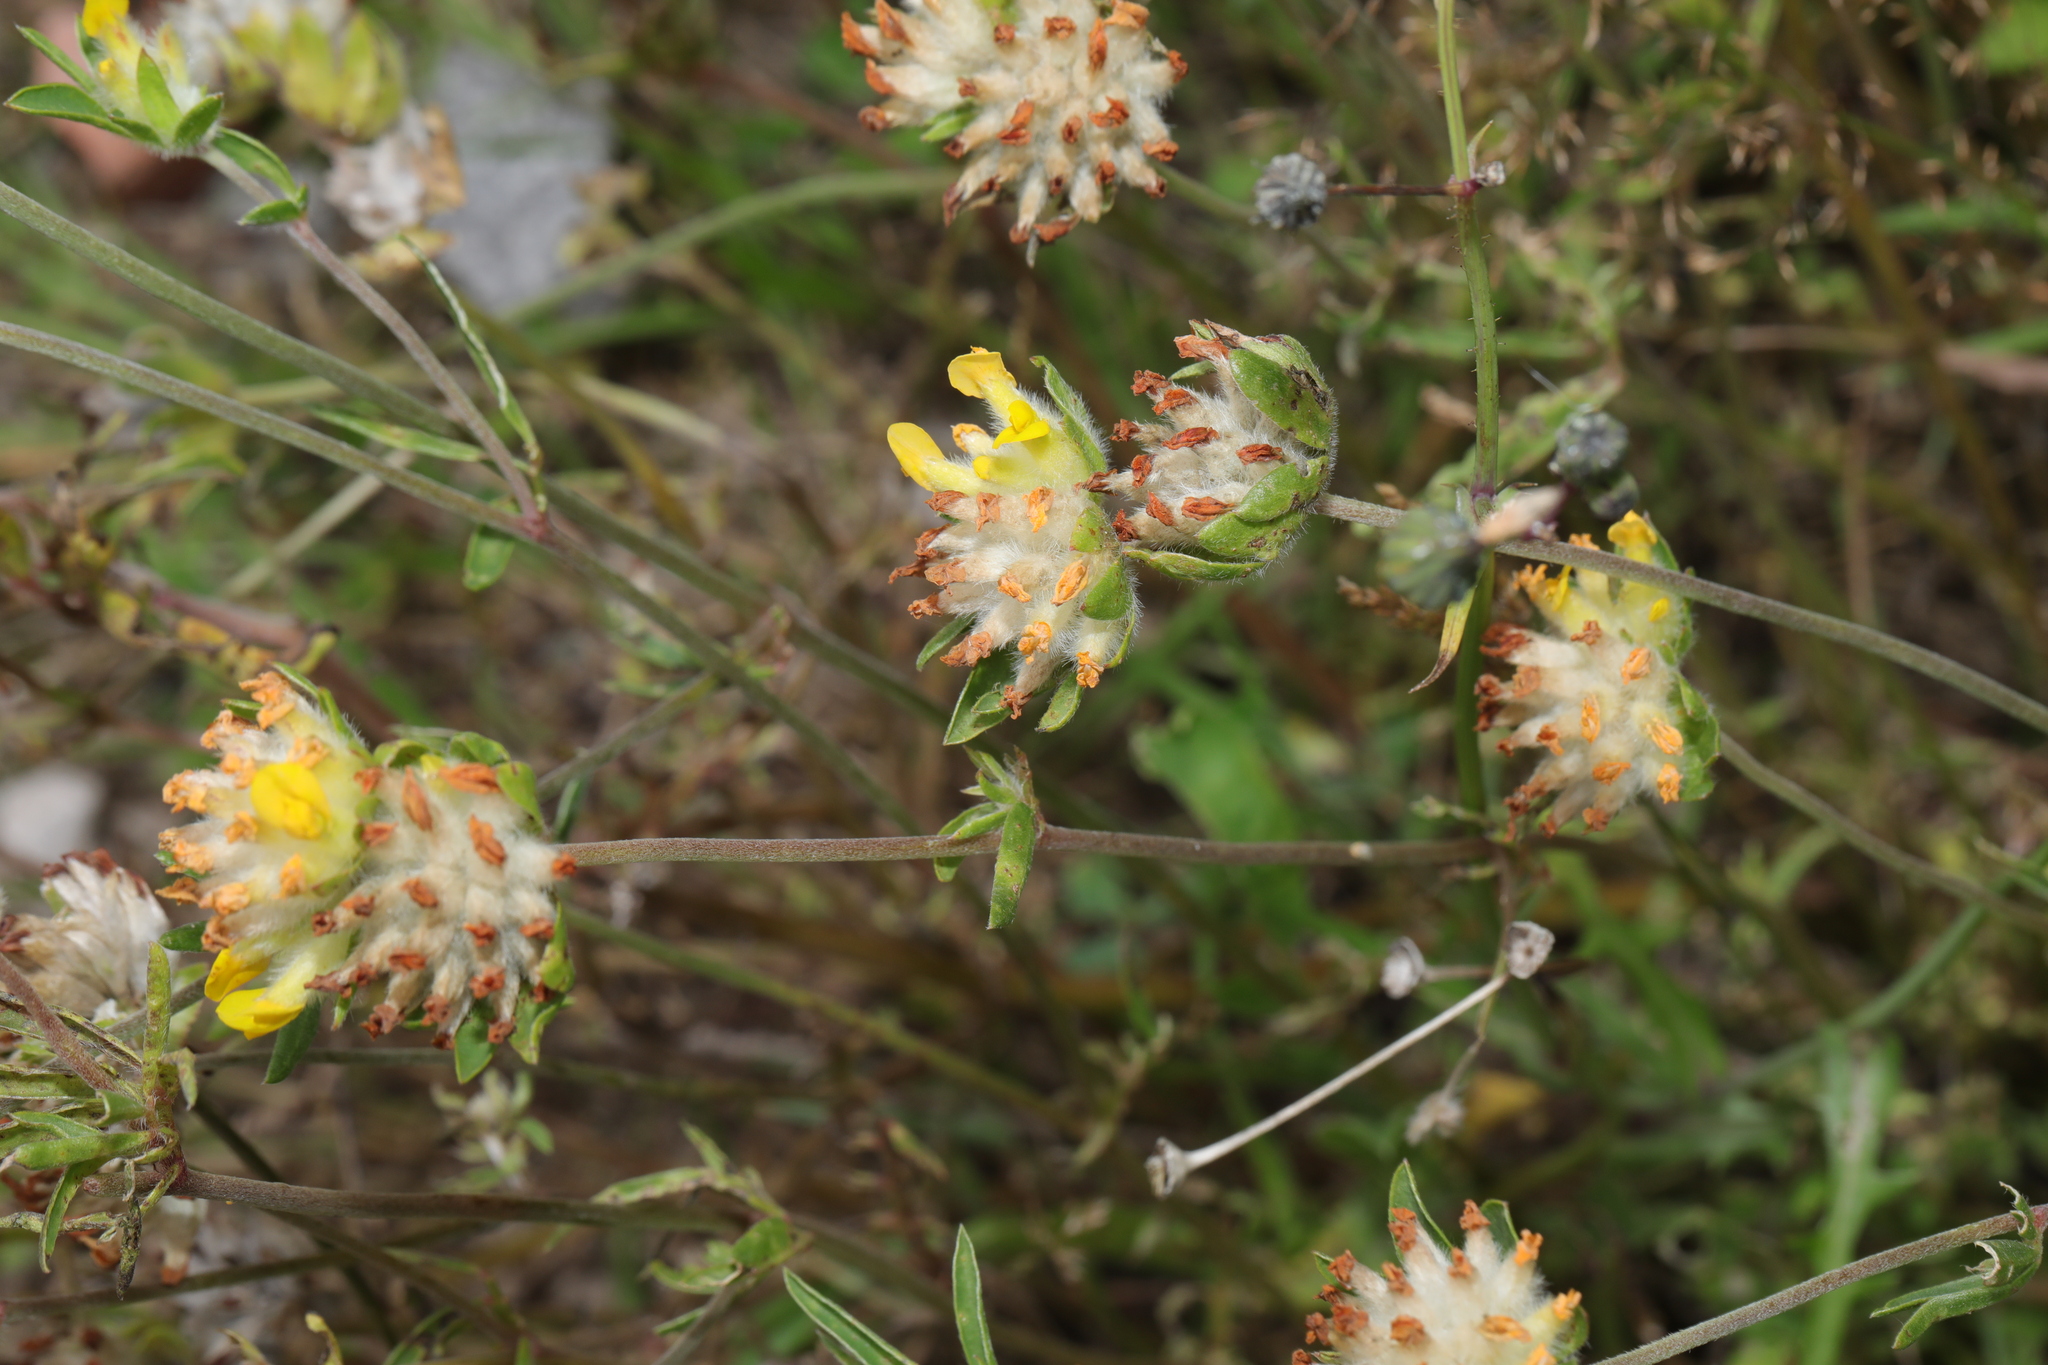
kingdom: Plantae
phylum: Tracheophyta
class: Magnoliopsida
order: Fabales
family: Fabaceae
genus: Anthyllis
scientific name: Anthyllis vulneraria
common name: Kidney vetch
